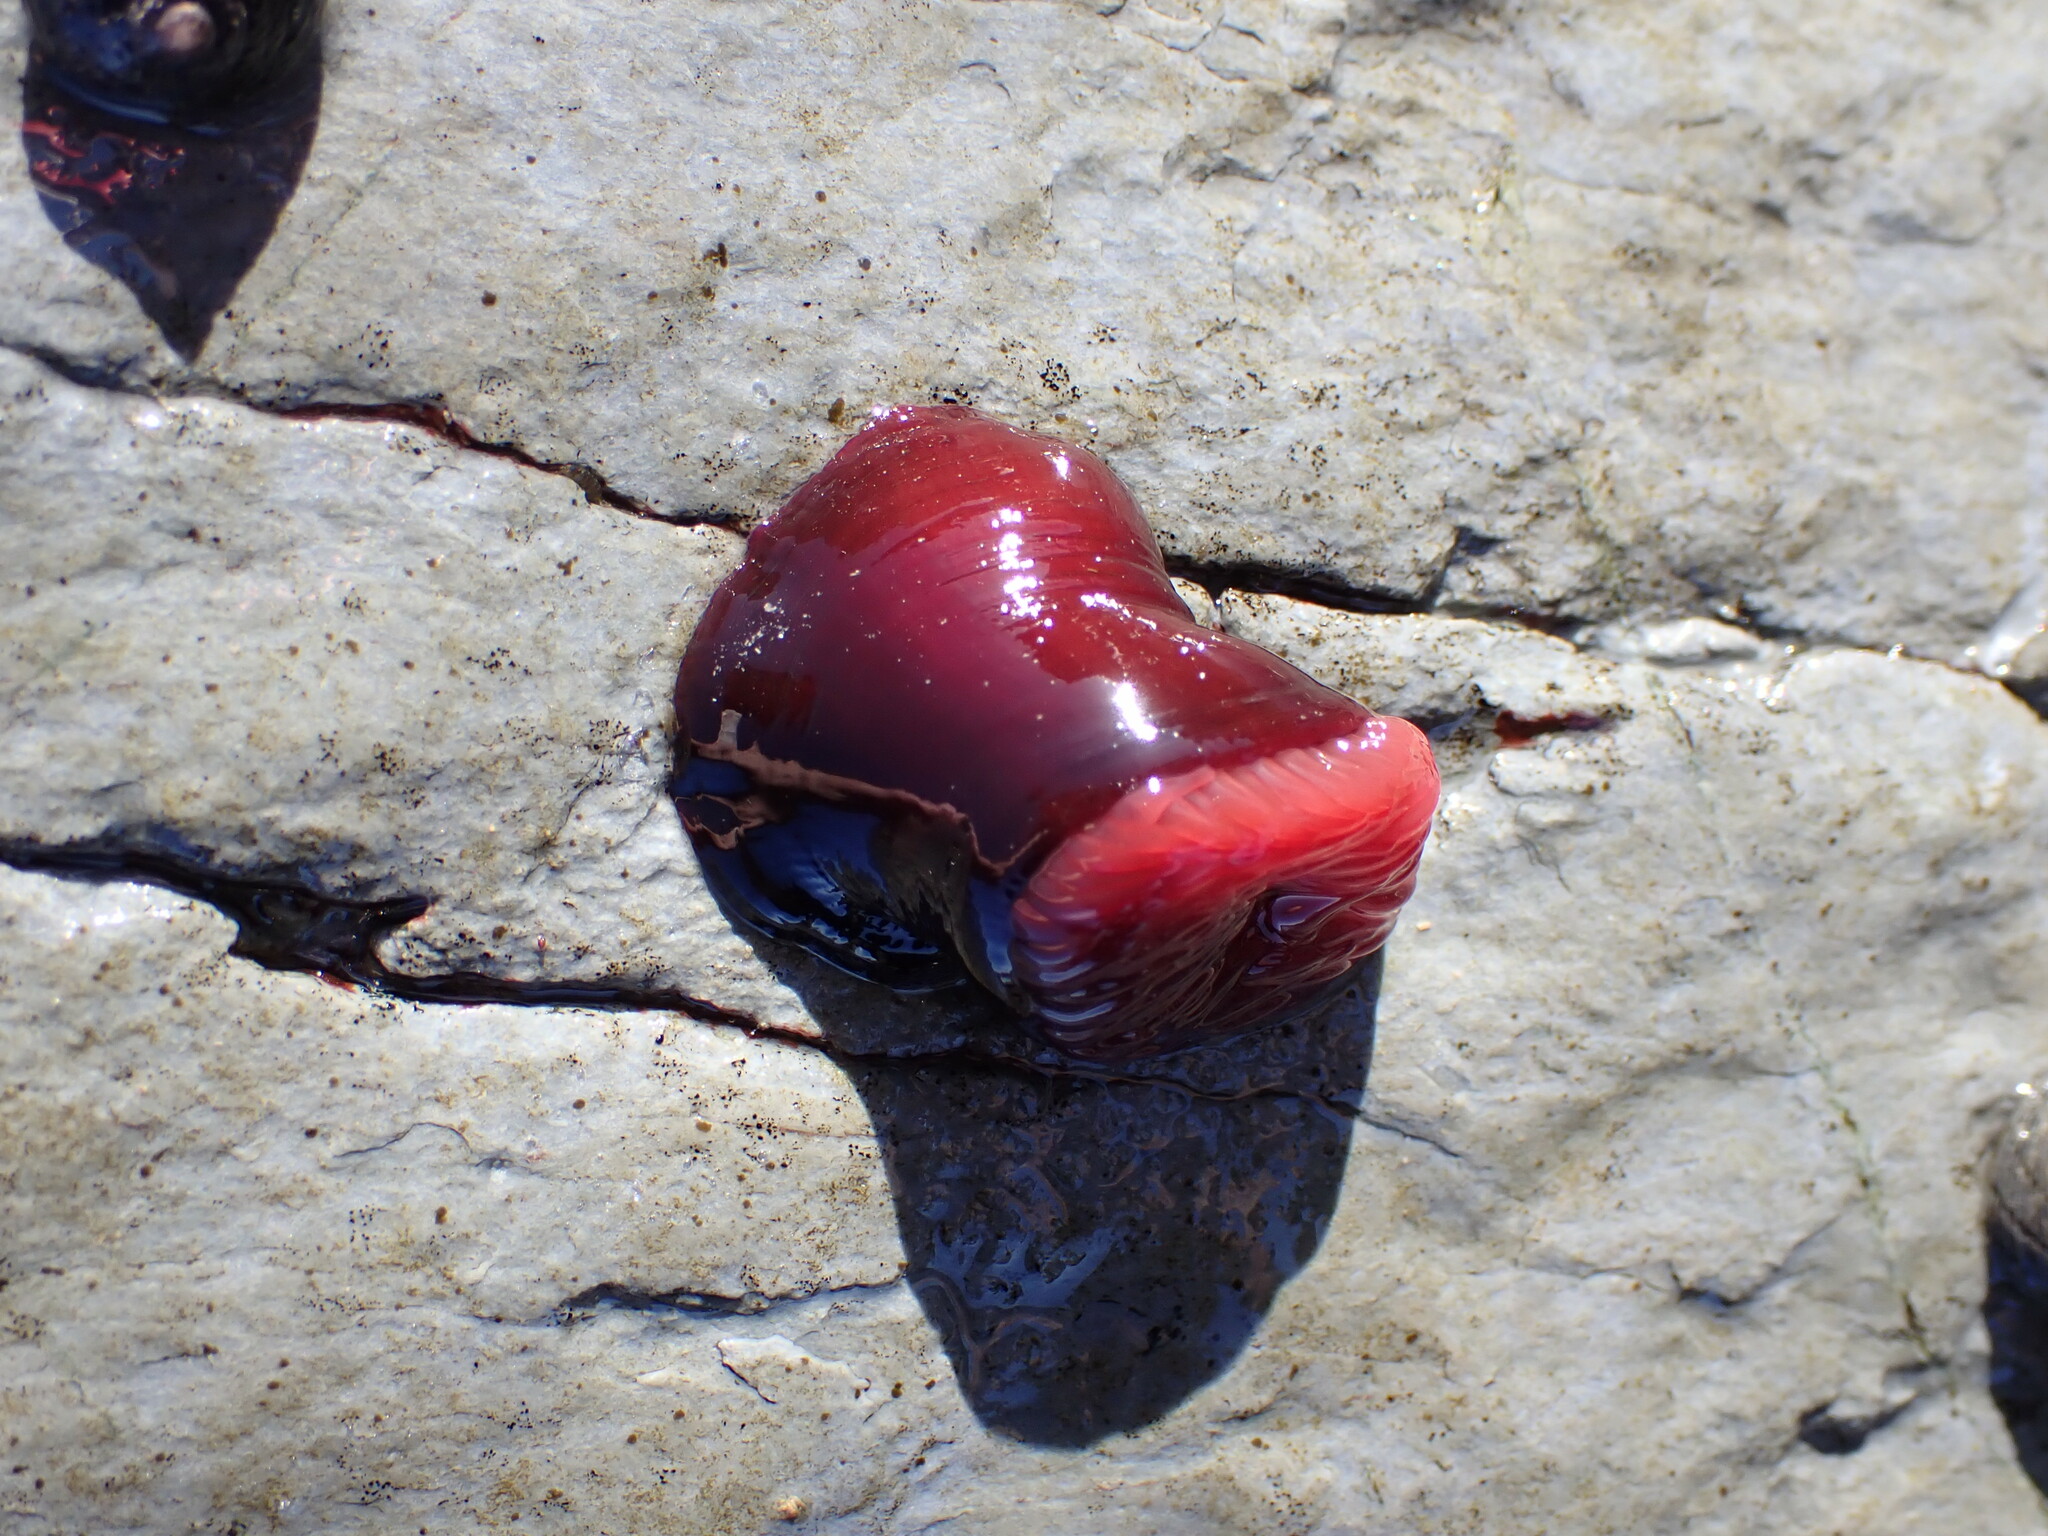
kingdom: Animalia
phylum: Cnidaria
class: Anthozoa
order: Actiniaria
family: Actiniidae
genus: Actinia
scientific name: Actinia tenebrosa
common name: Waratah anemone
